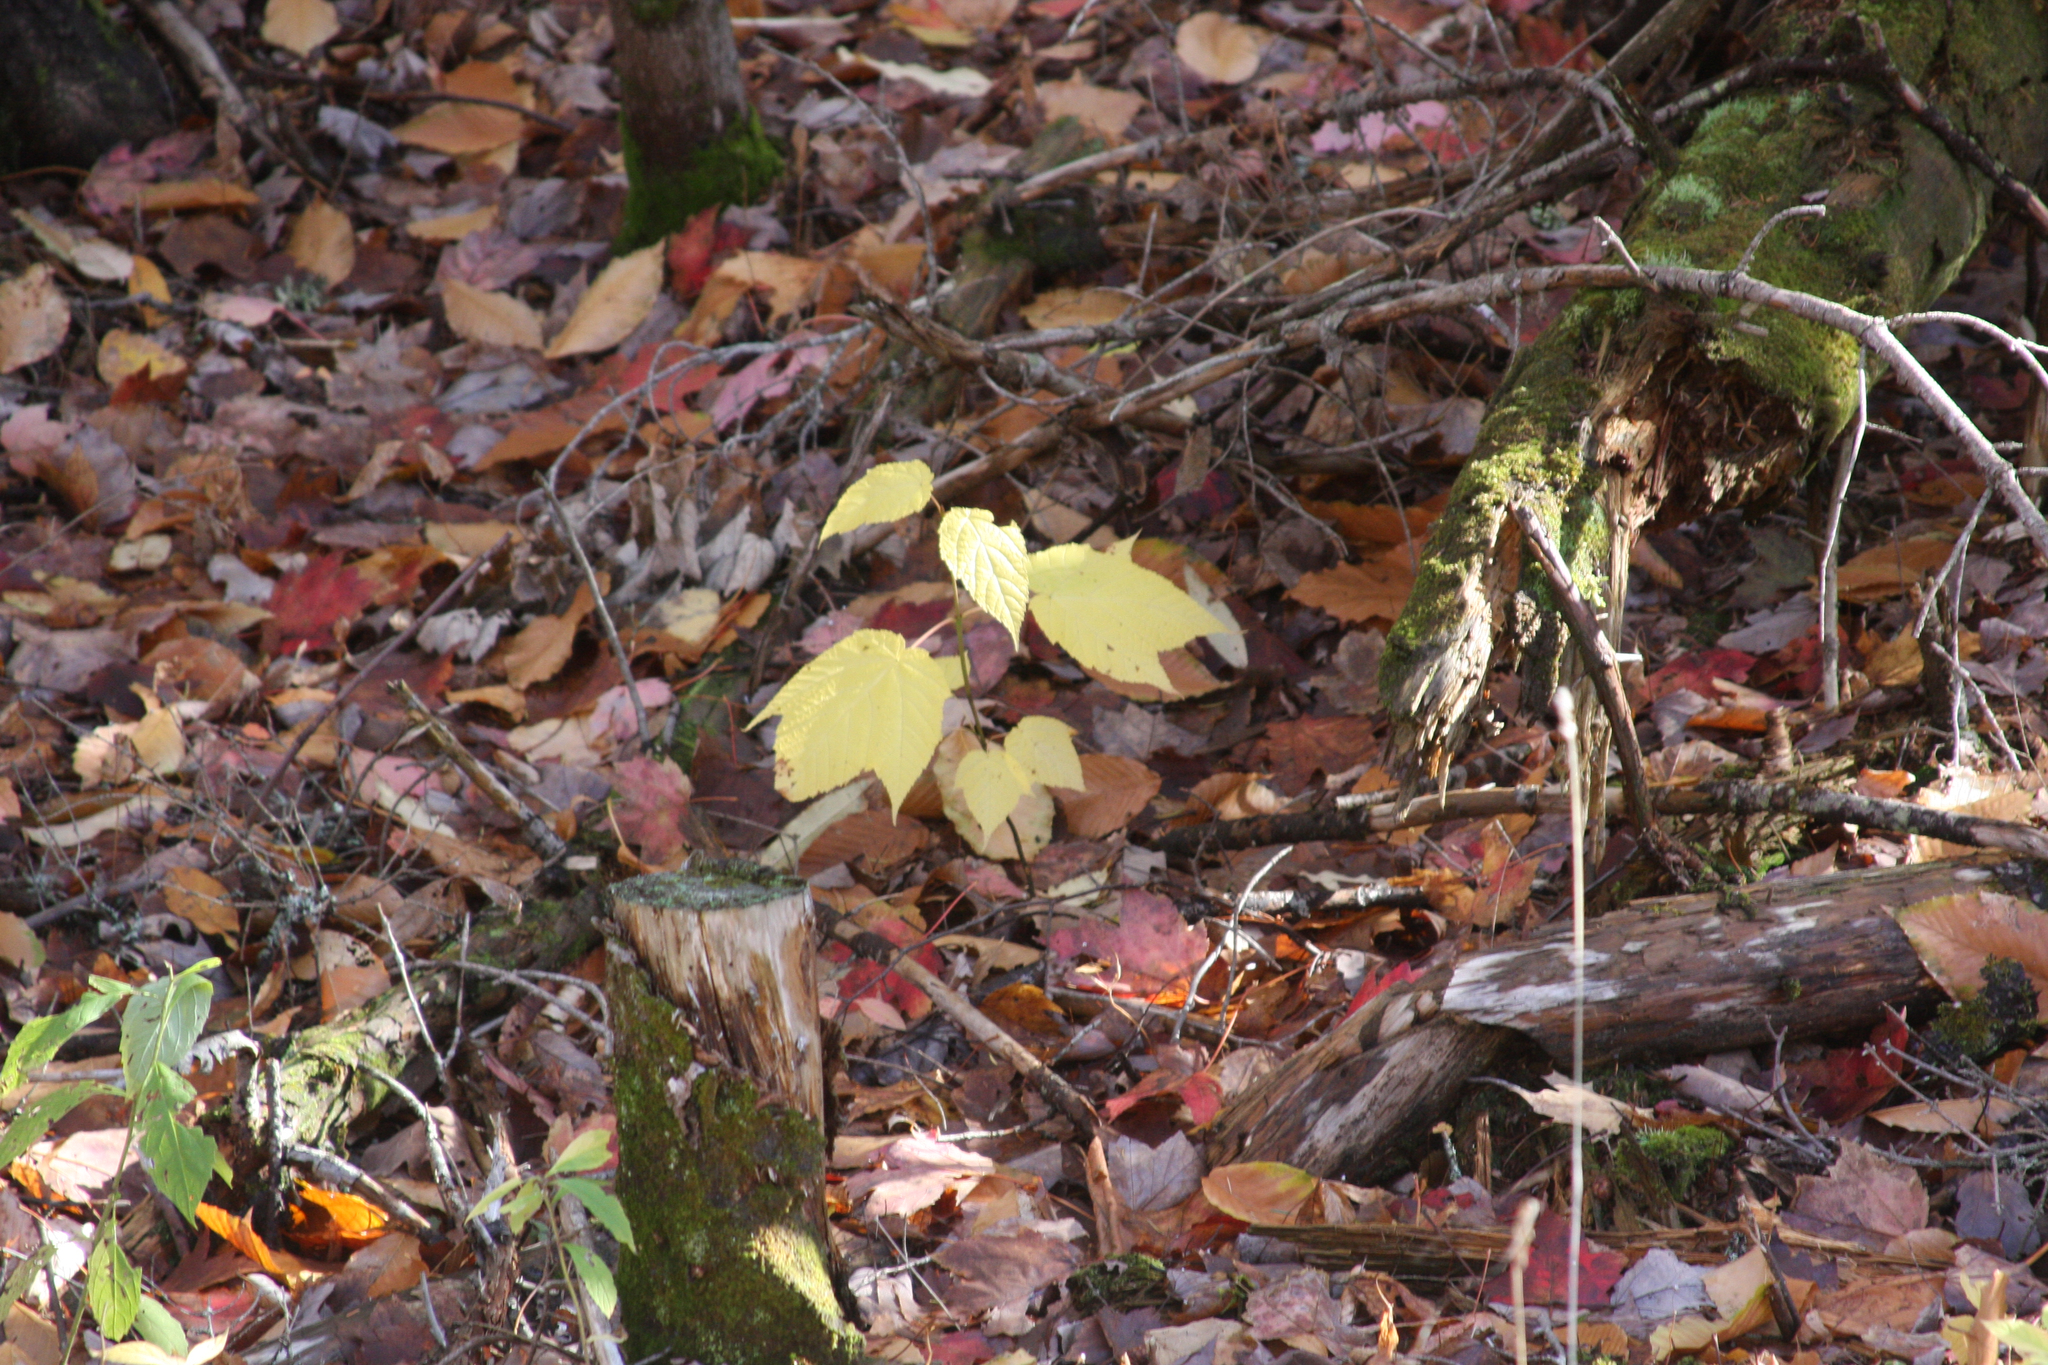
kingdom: Plantae
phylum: Tracheophyta
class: Magnoliopsida
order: Sapindales
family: Sapindaceae
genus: Acer
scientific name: Acer pensylvanicum
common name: Moosewood
